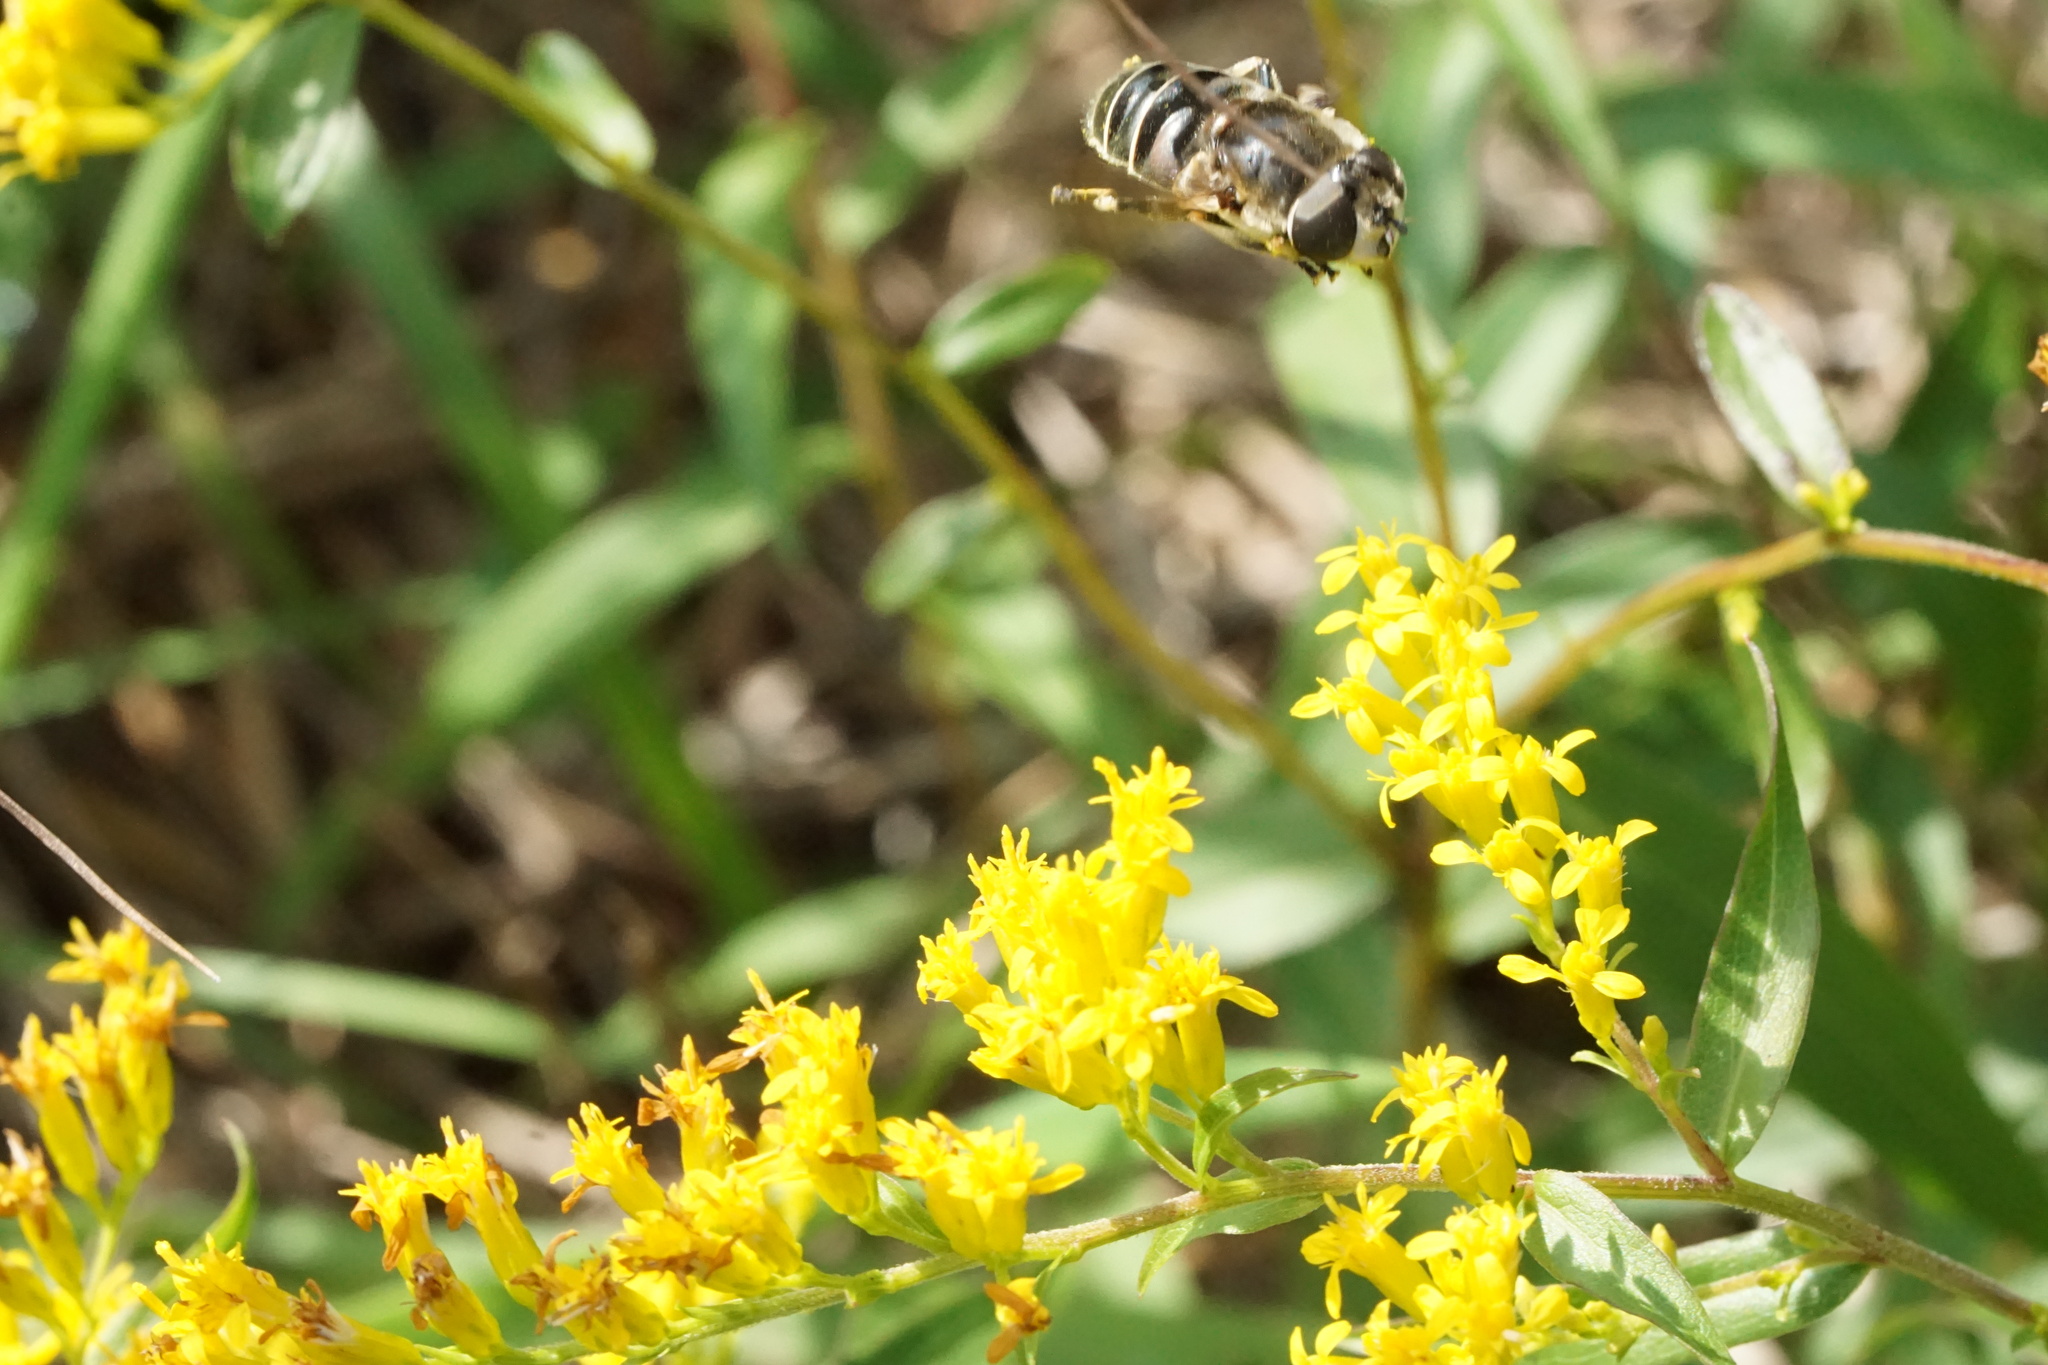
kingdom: Animalia
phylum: Arthropoda
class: Insecta
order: Diptera
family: Syrphidae
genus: Eristalis
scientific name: Eristalis dimidiata
